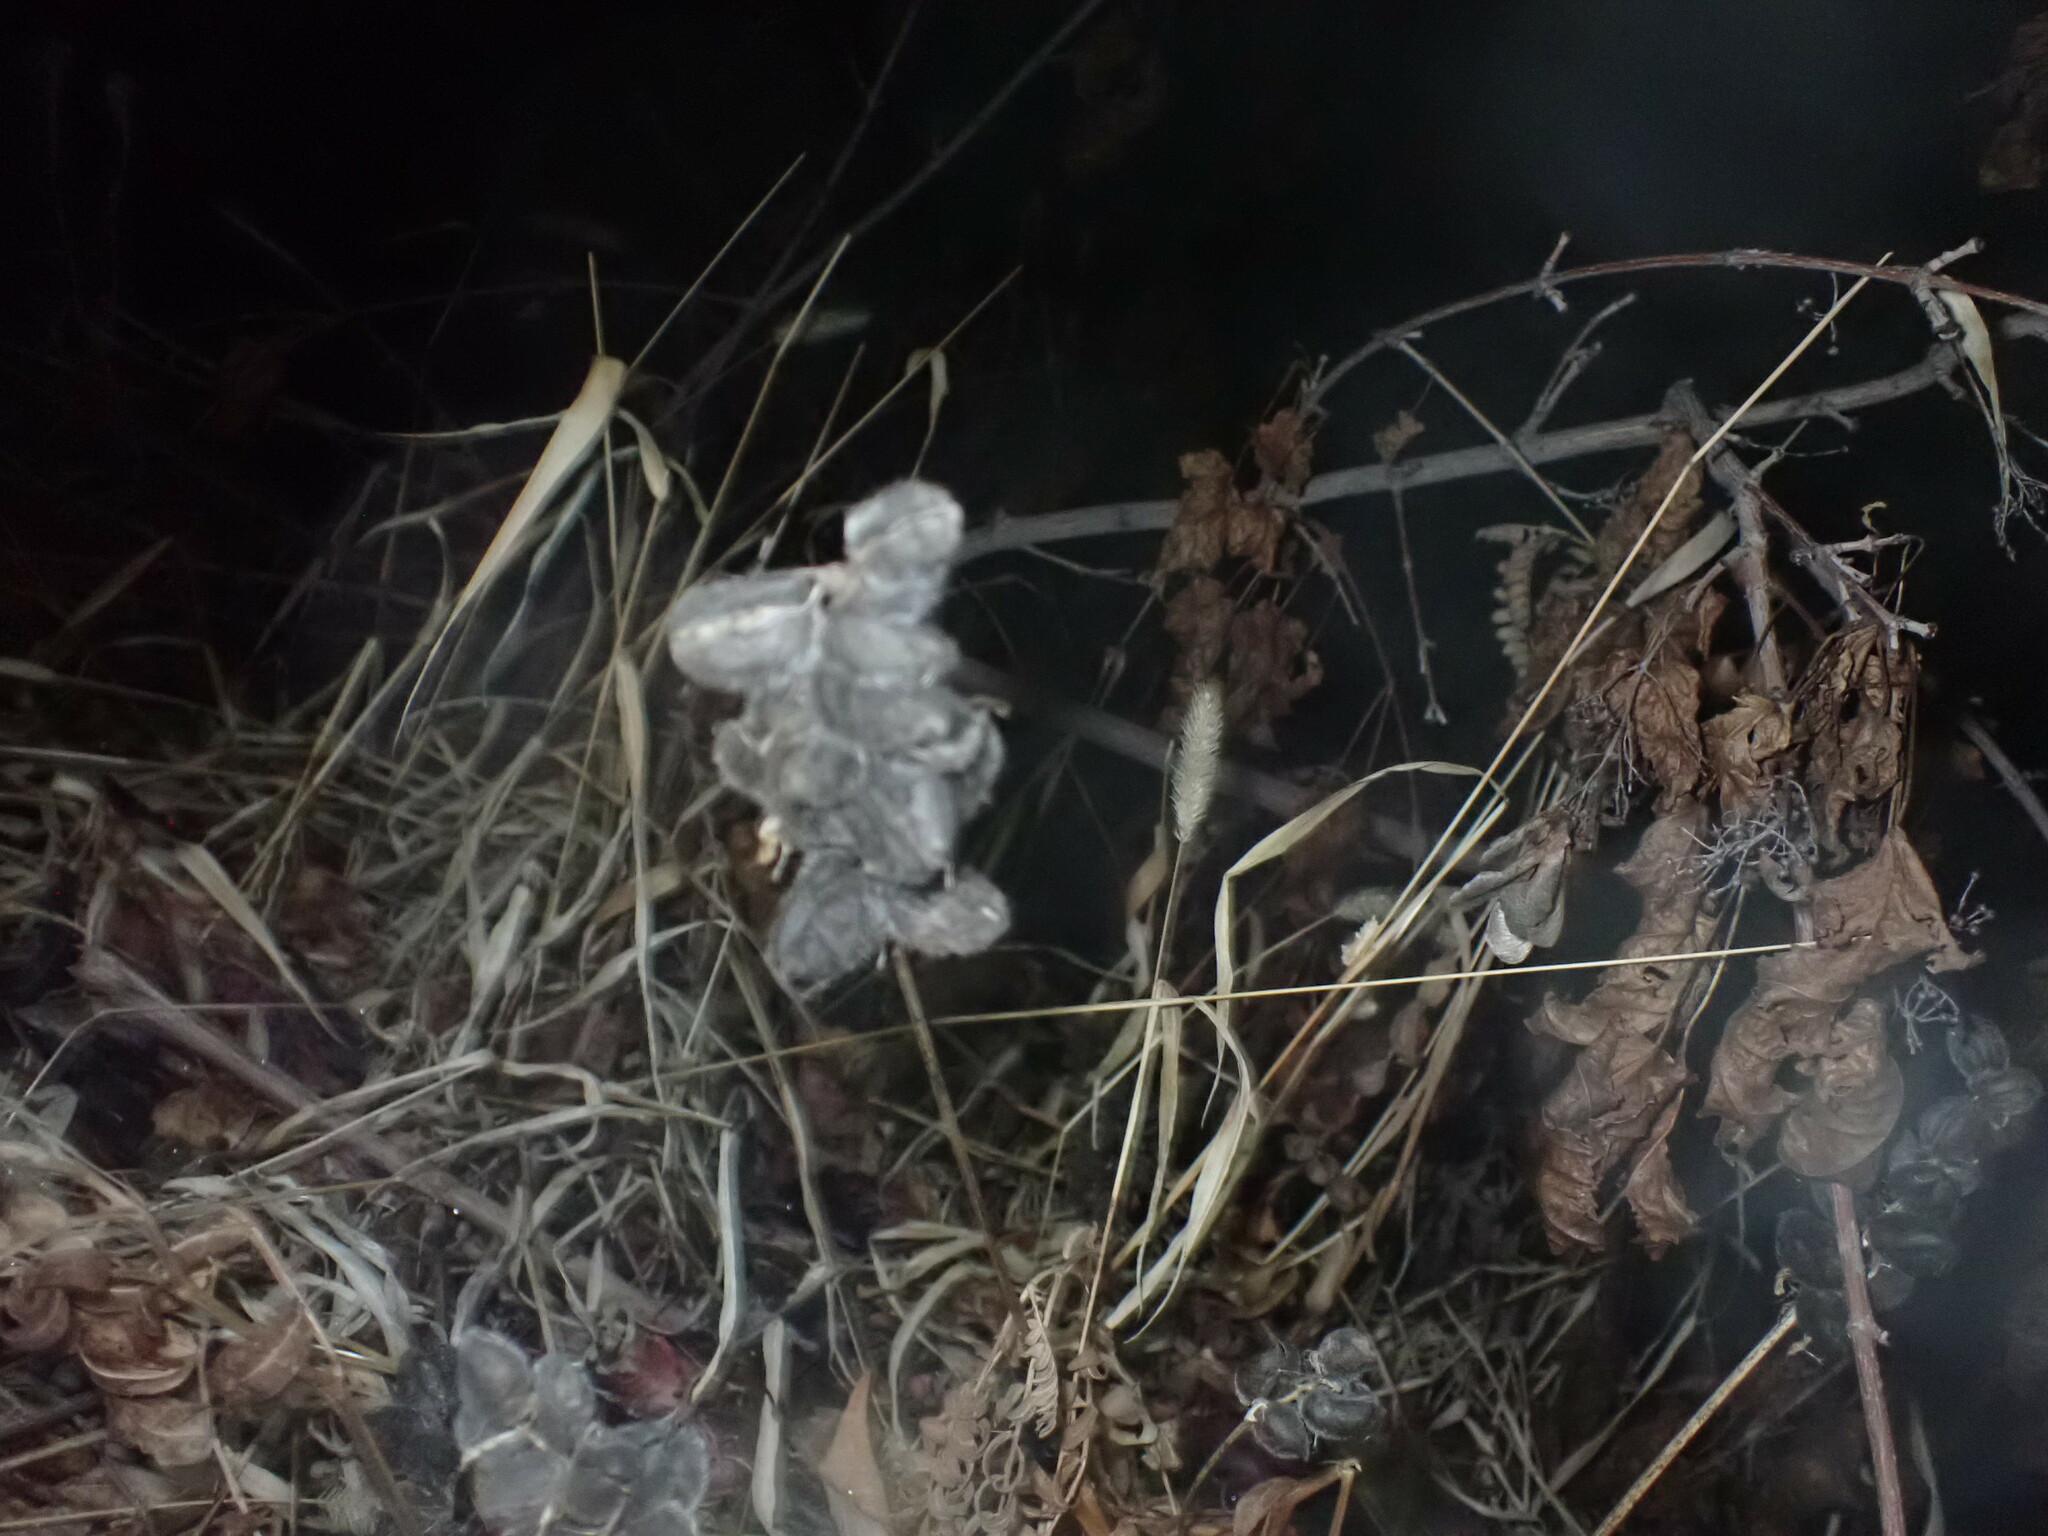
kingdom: Plantae
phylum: Tracheophyta
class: Magnoliopsida
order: Fabales
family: Fabaceae
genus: Astragalus
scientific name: Astragalus cicer
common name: Chick-pea milk-vetch
